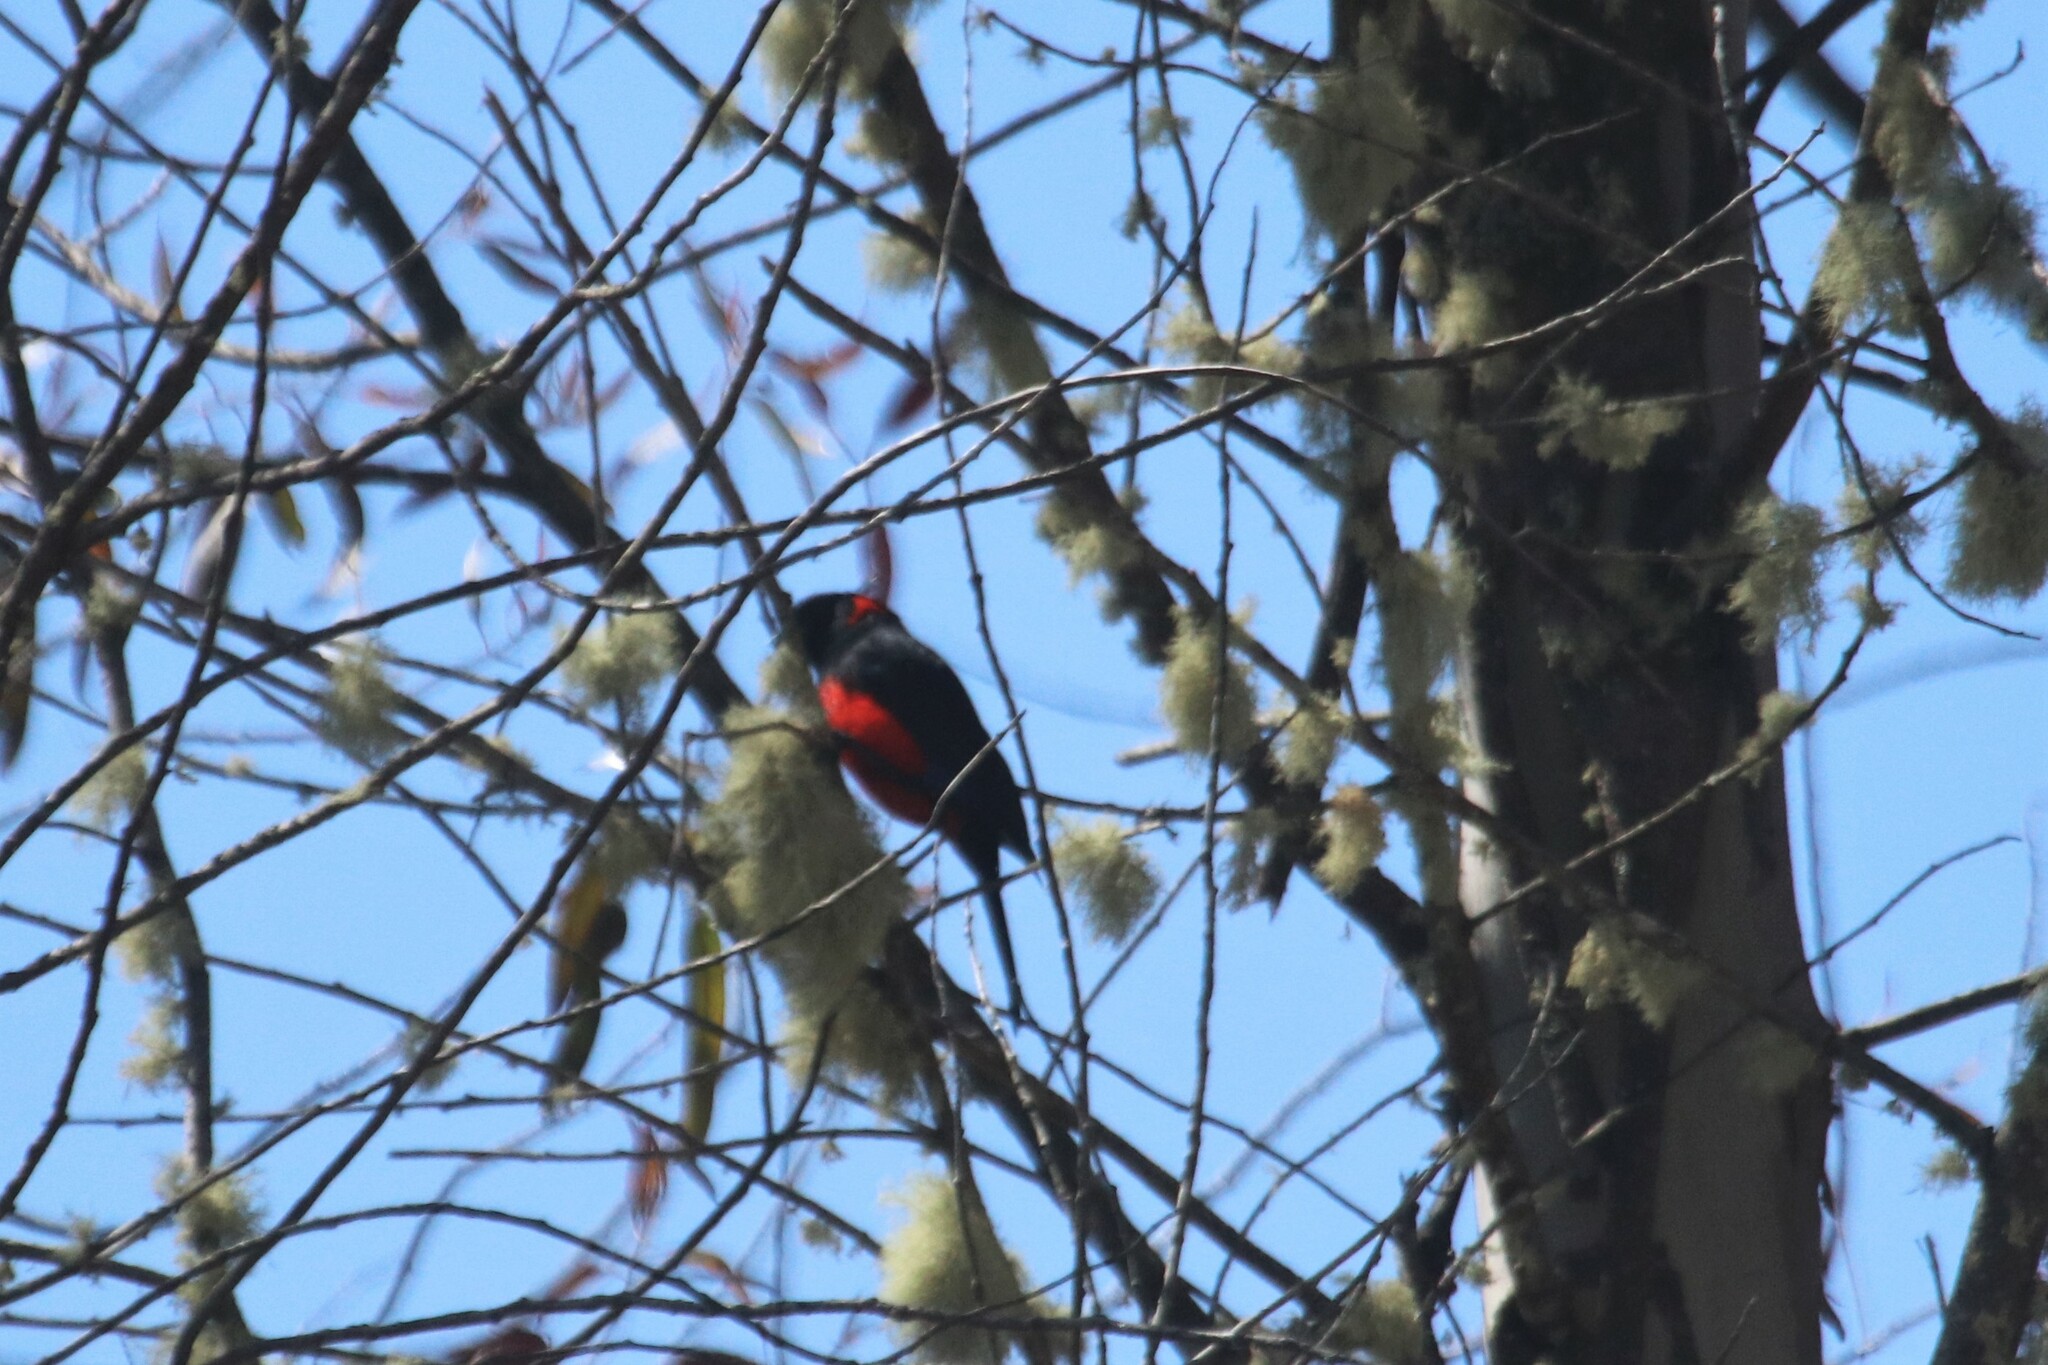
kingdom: Animalia
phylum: Chordata
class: Aves
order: Passeriformes
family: Thraupidae
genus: Anisognathus
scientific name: Anisognathus igniventris
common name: Scarlet-bellied mountain tanager
